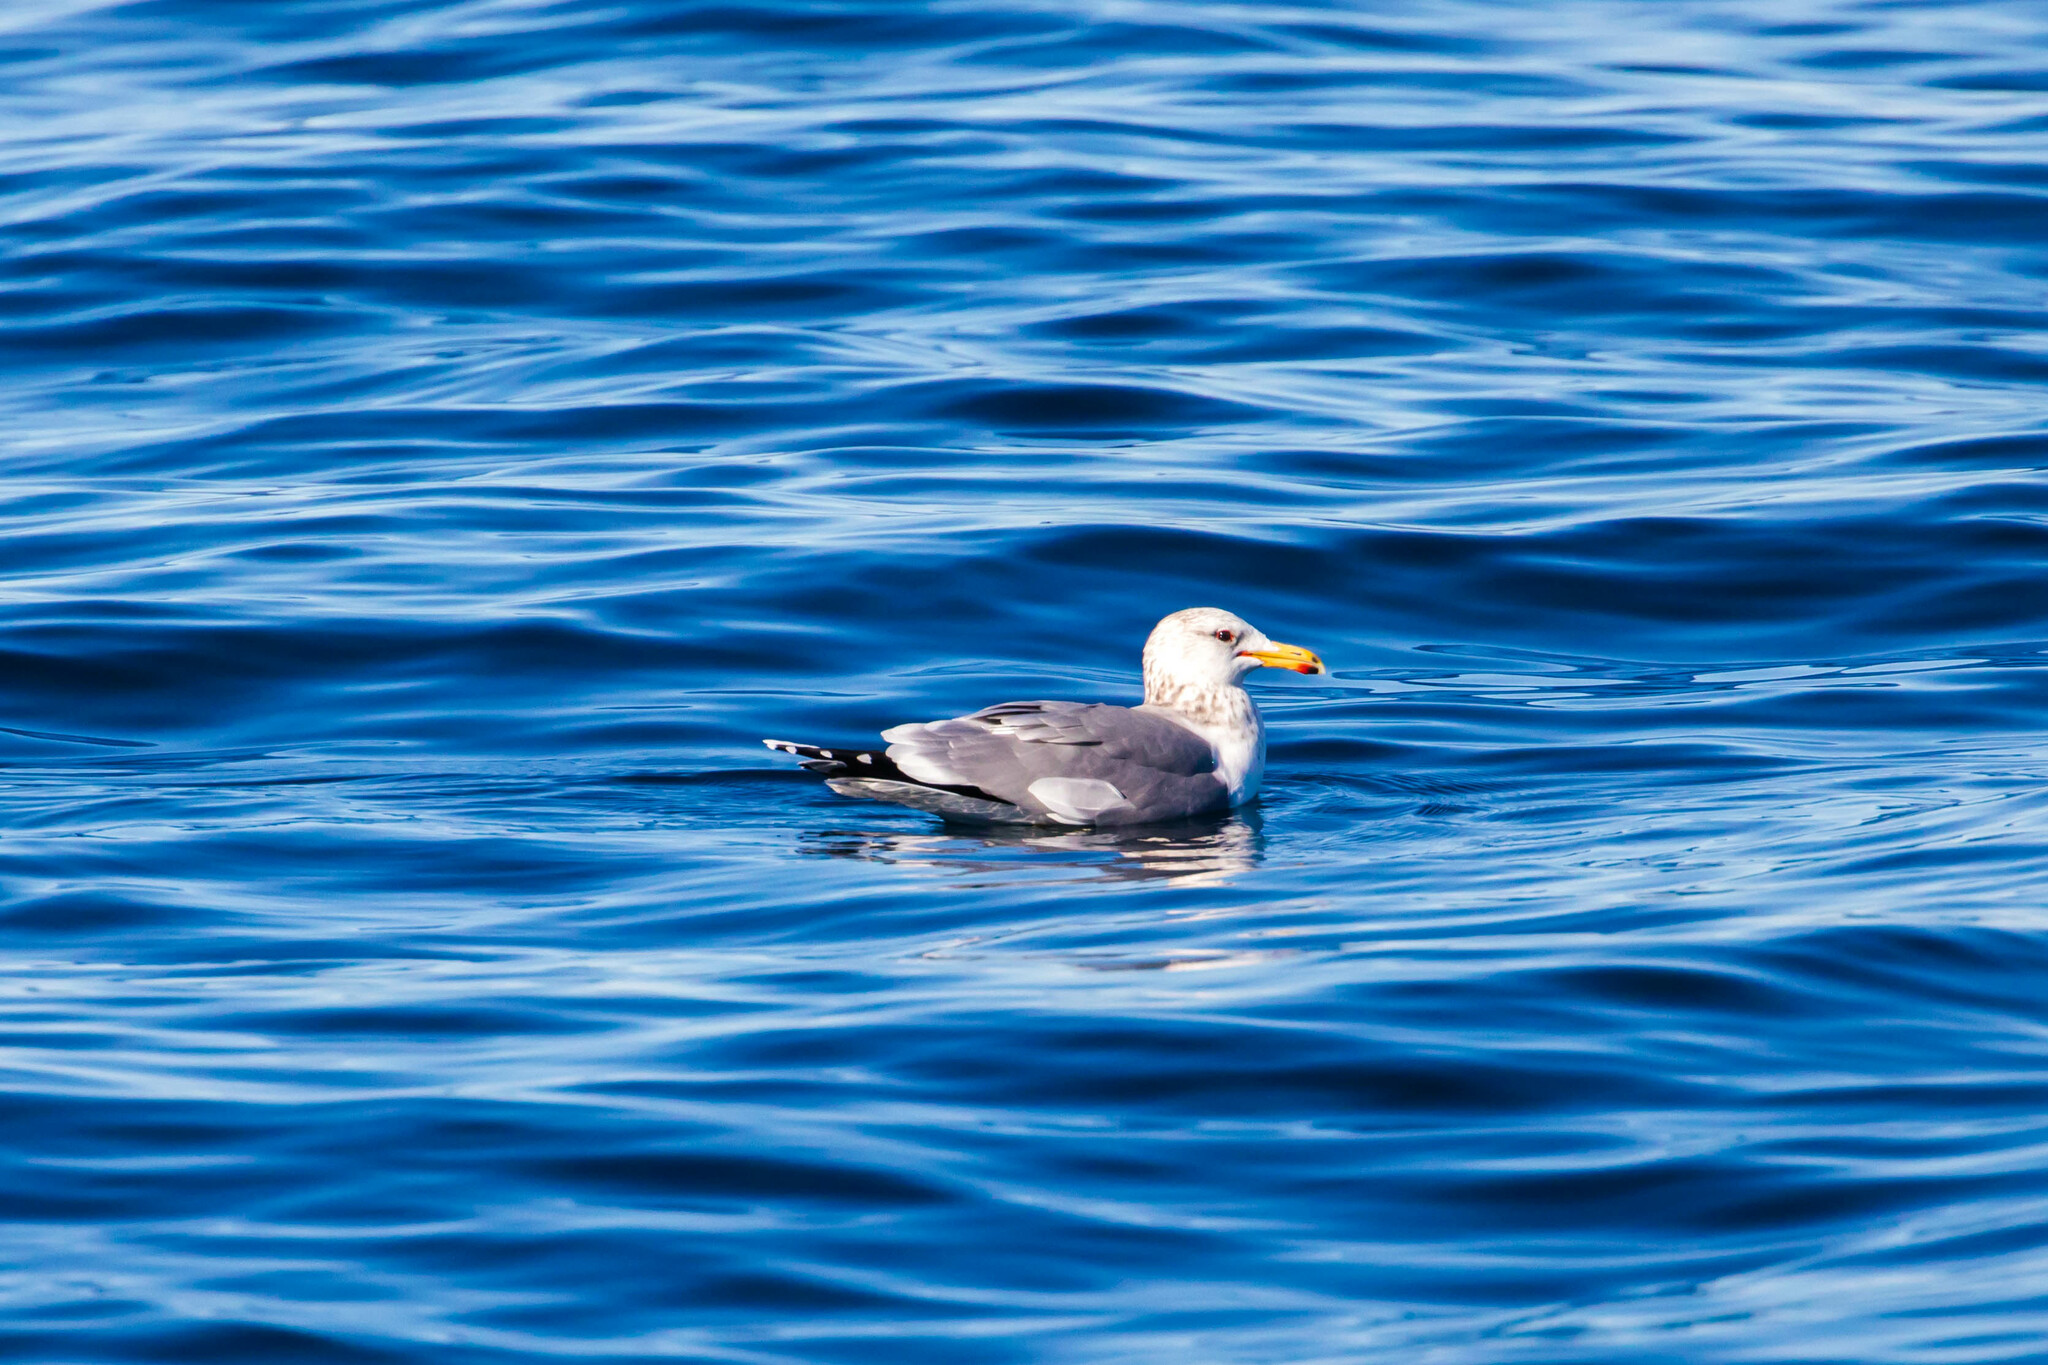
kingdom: Animalia
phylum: Chordata
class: Aves
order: Charadriiformes
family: Laridae
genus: Larus
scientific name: Larus californicus
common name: California gull
